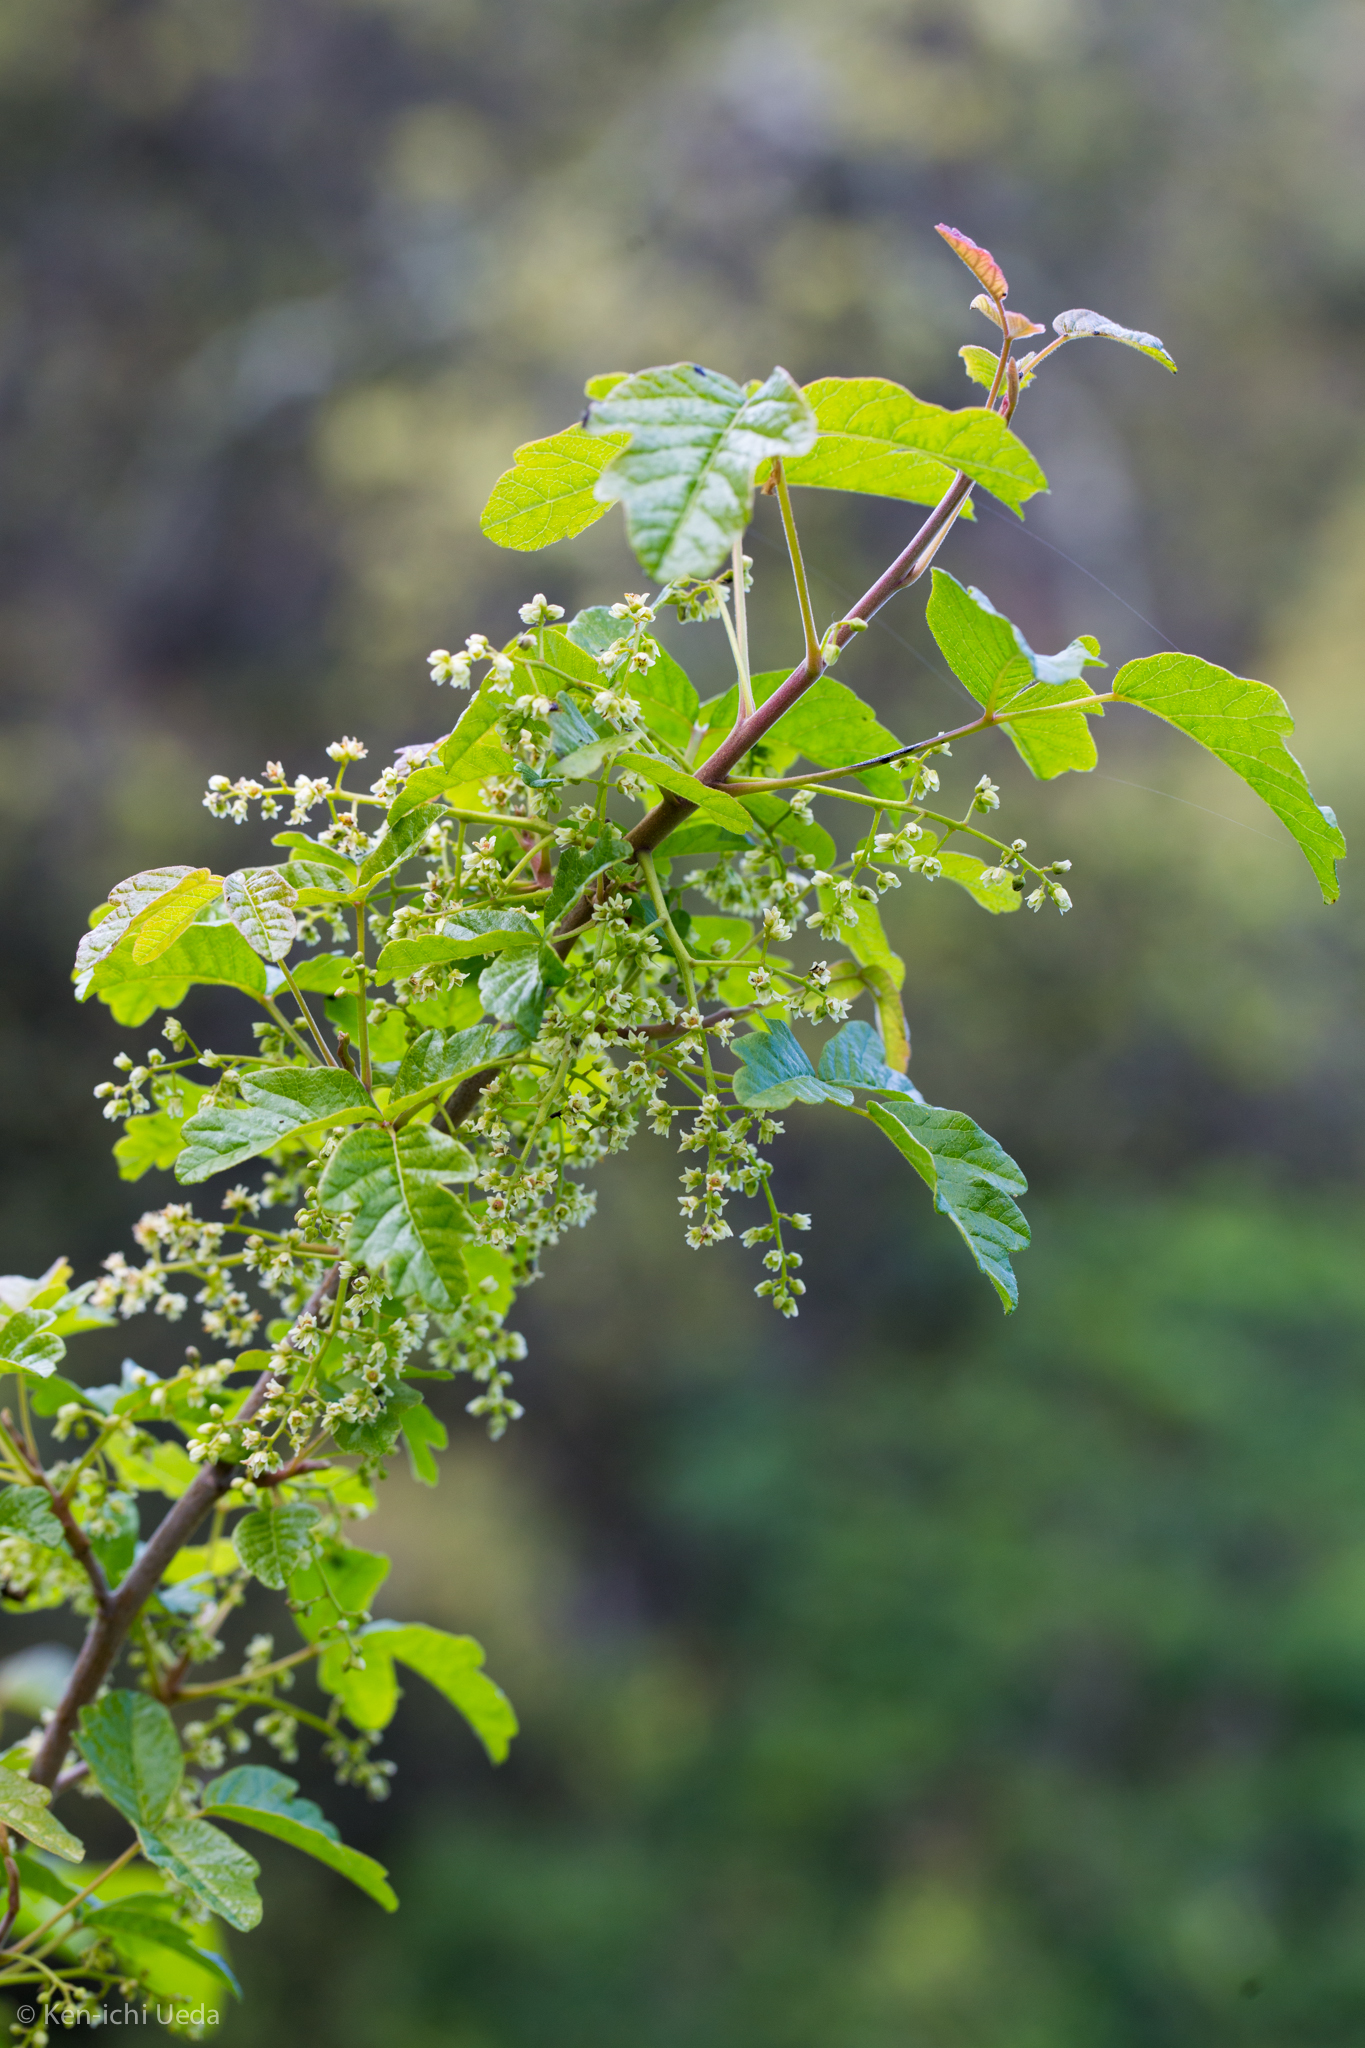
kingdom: Plantae
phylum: Tracheophyta
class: Magnoliopsida
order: Sapindales
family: Anacardiaceae
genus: Toxicodendron
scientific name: Toxicodendron diversilobum
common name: Pacific poison-oak
